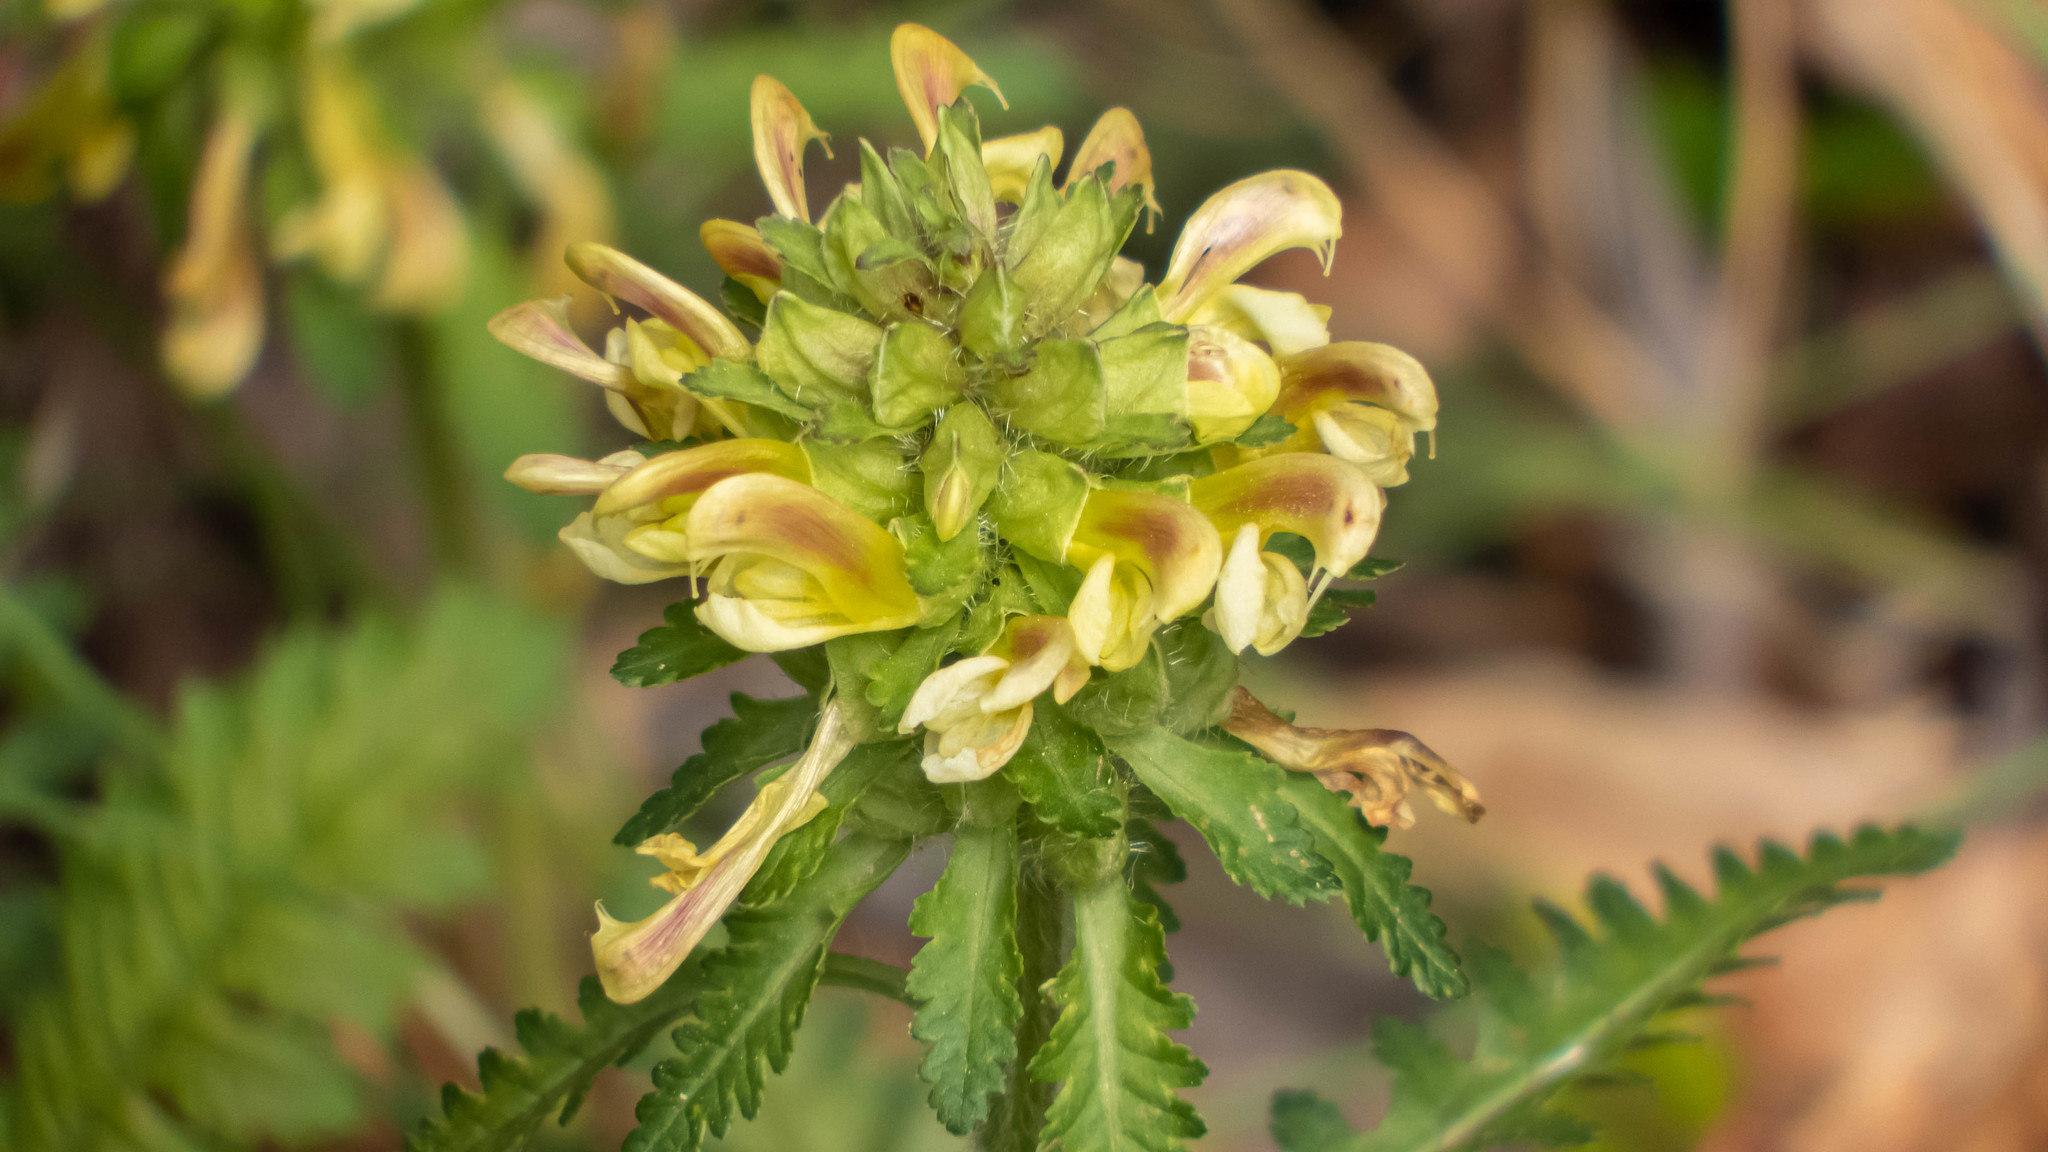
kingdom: Plantae
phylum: Tracheophyta
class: Magnoliopsida
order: Lamiales
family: Orobanchaceae
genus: Pedicularis
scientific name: Pedicularis canadensis
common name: Early lousewort
